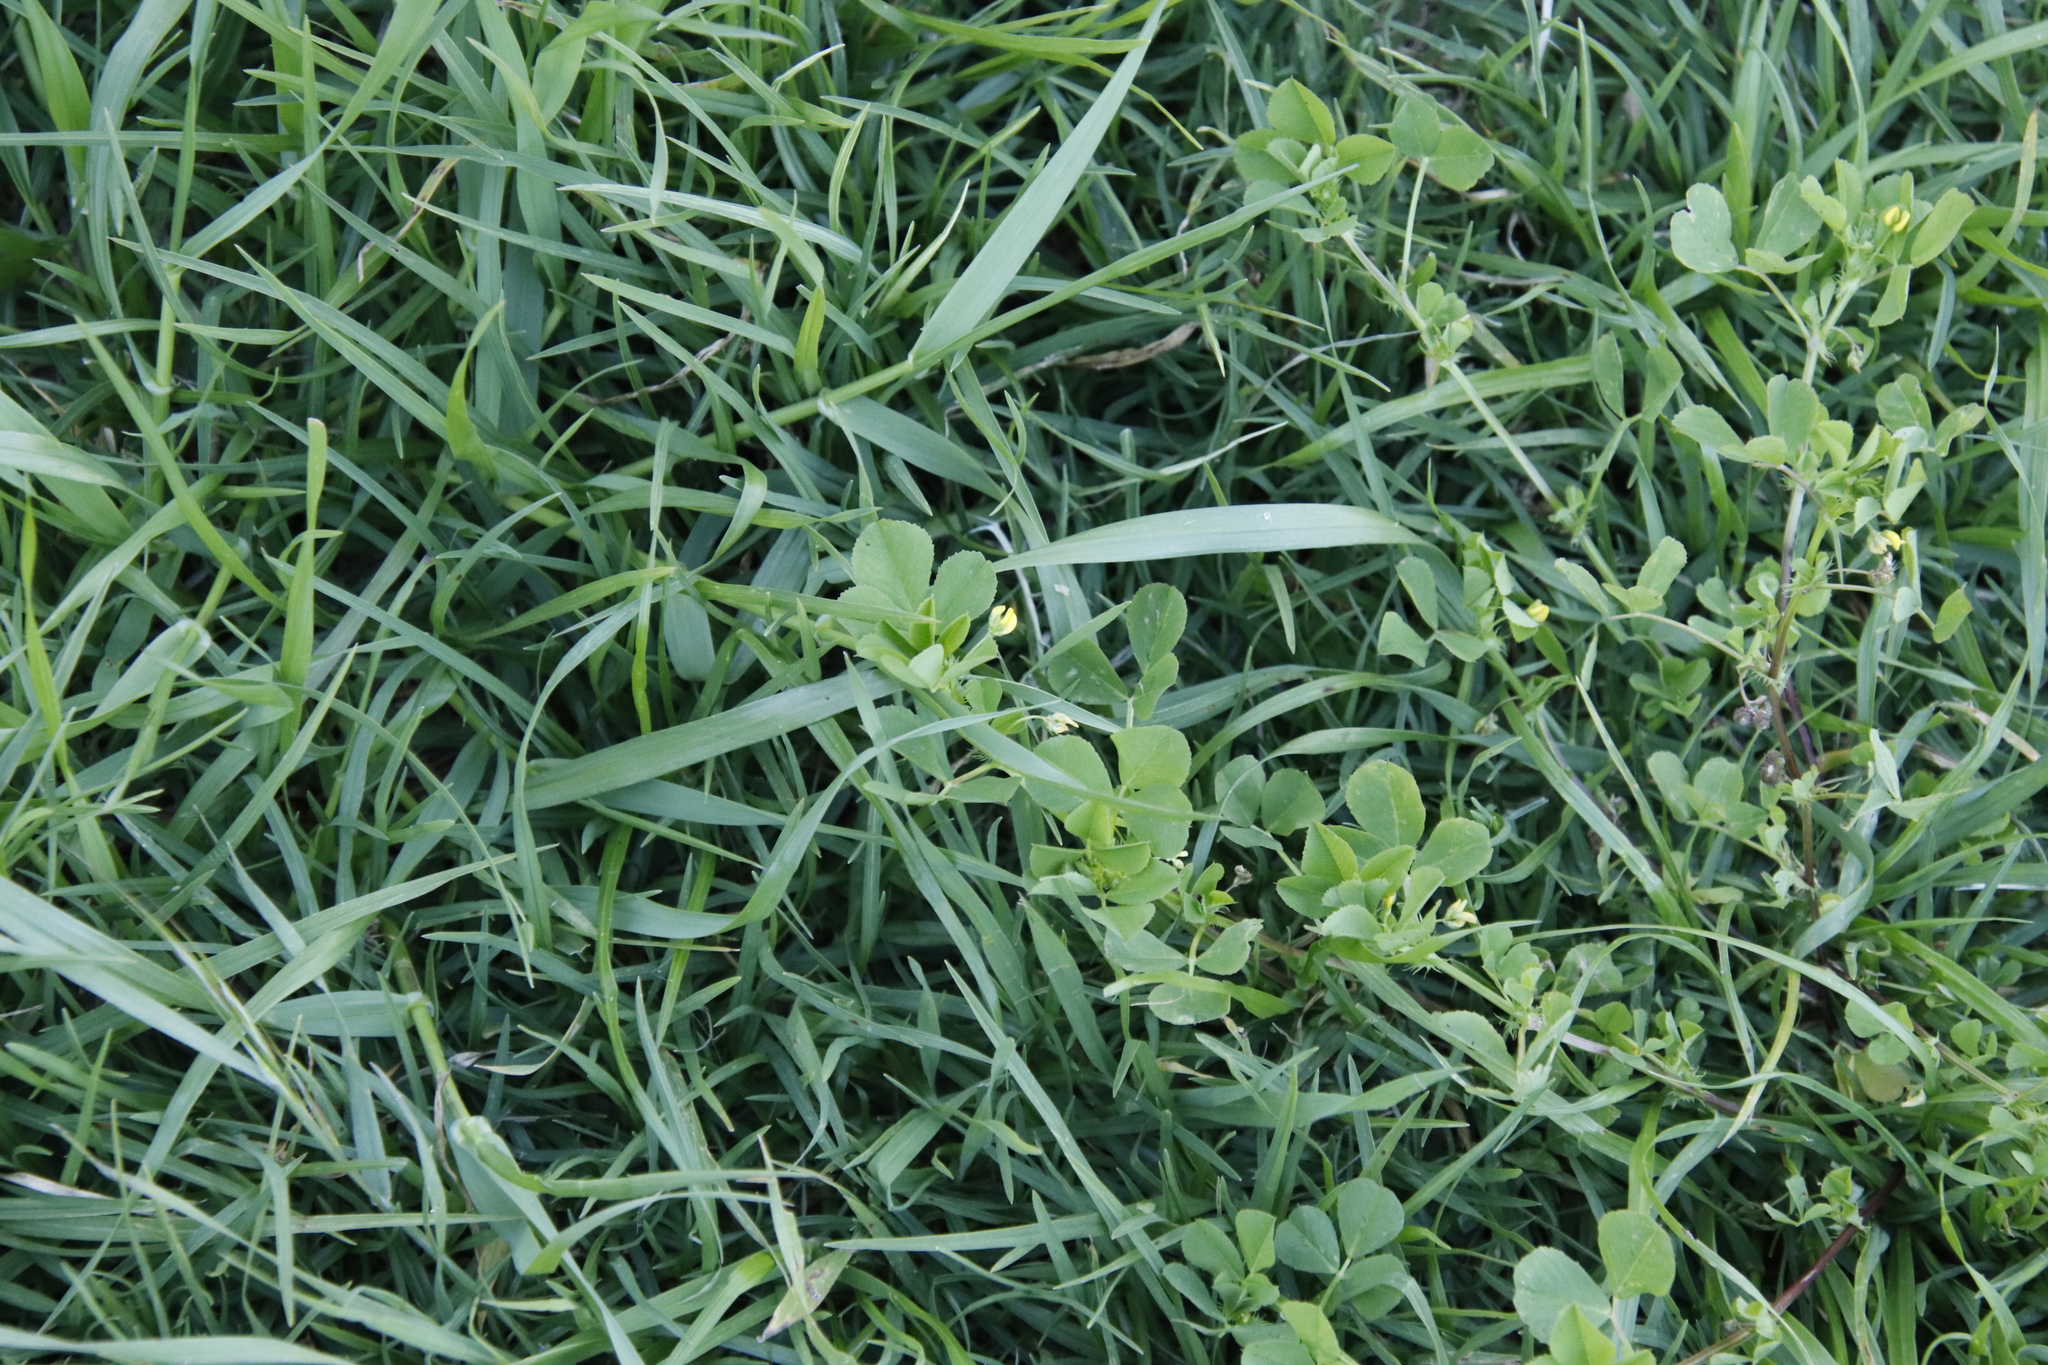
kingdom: Plantae
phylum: Tracheophyta
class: Magnoliopsida
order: Fabales
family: Fabaceae
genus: Medicago
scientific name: Medicago polymorpha
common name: Burclover
